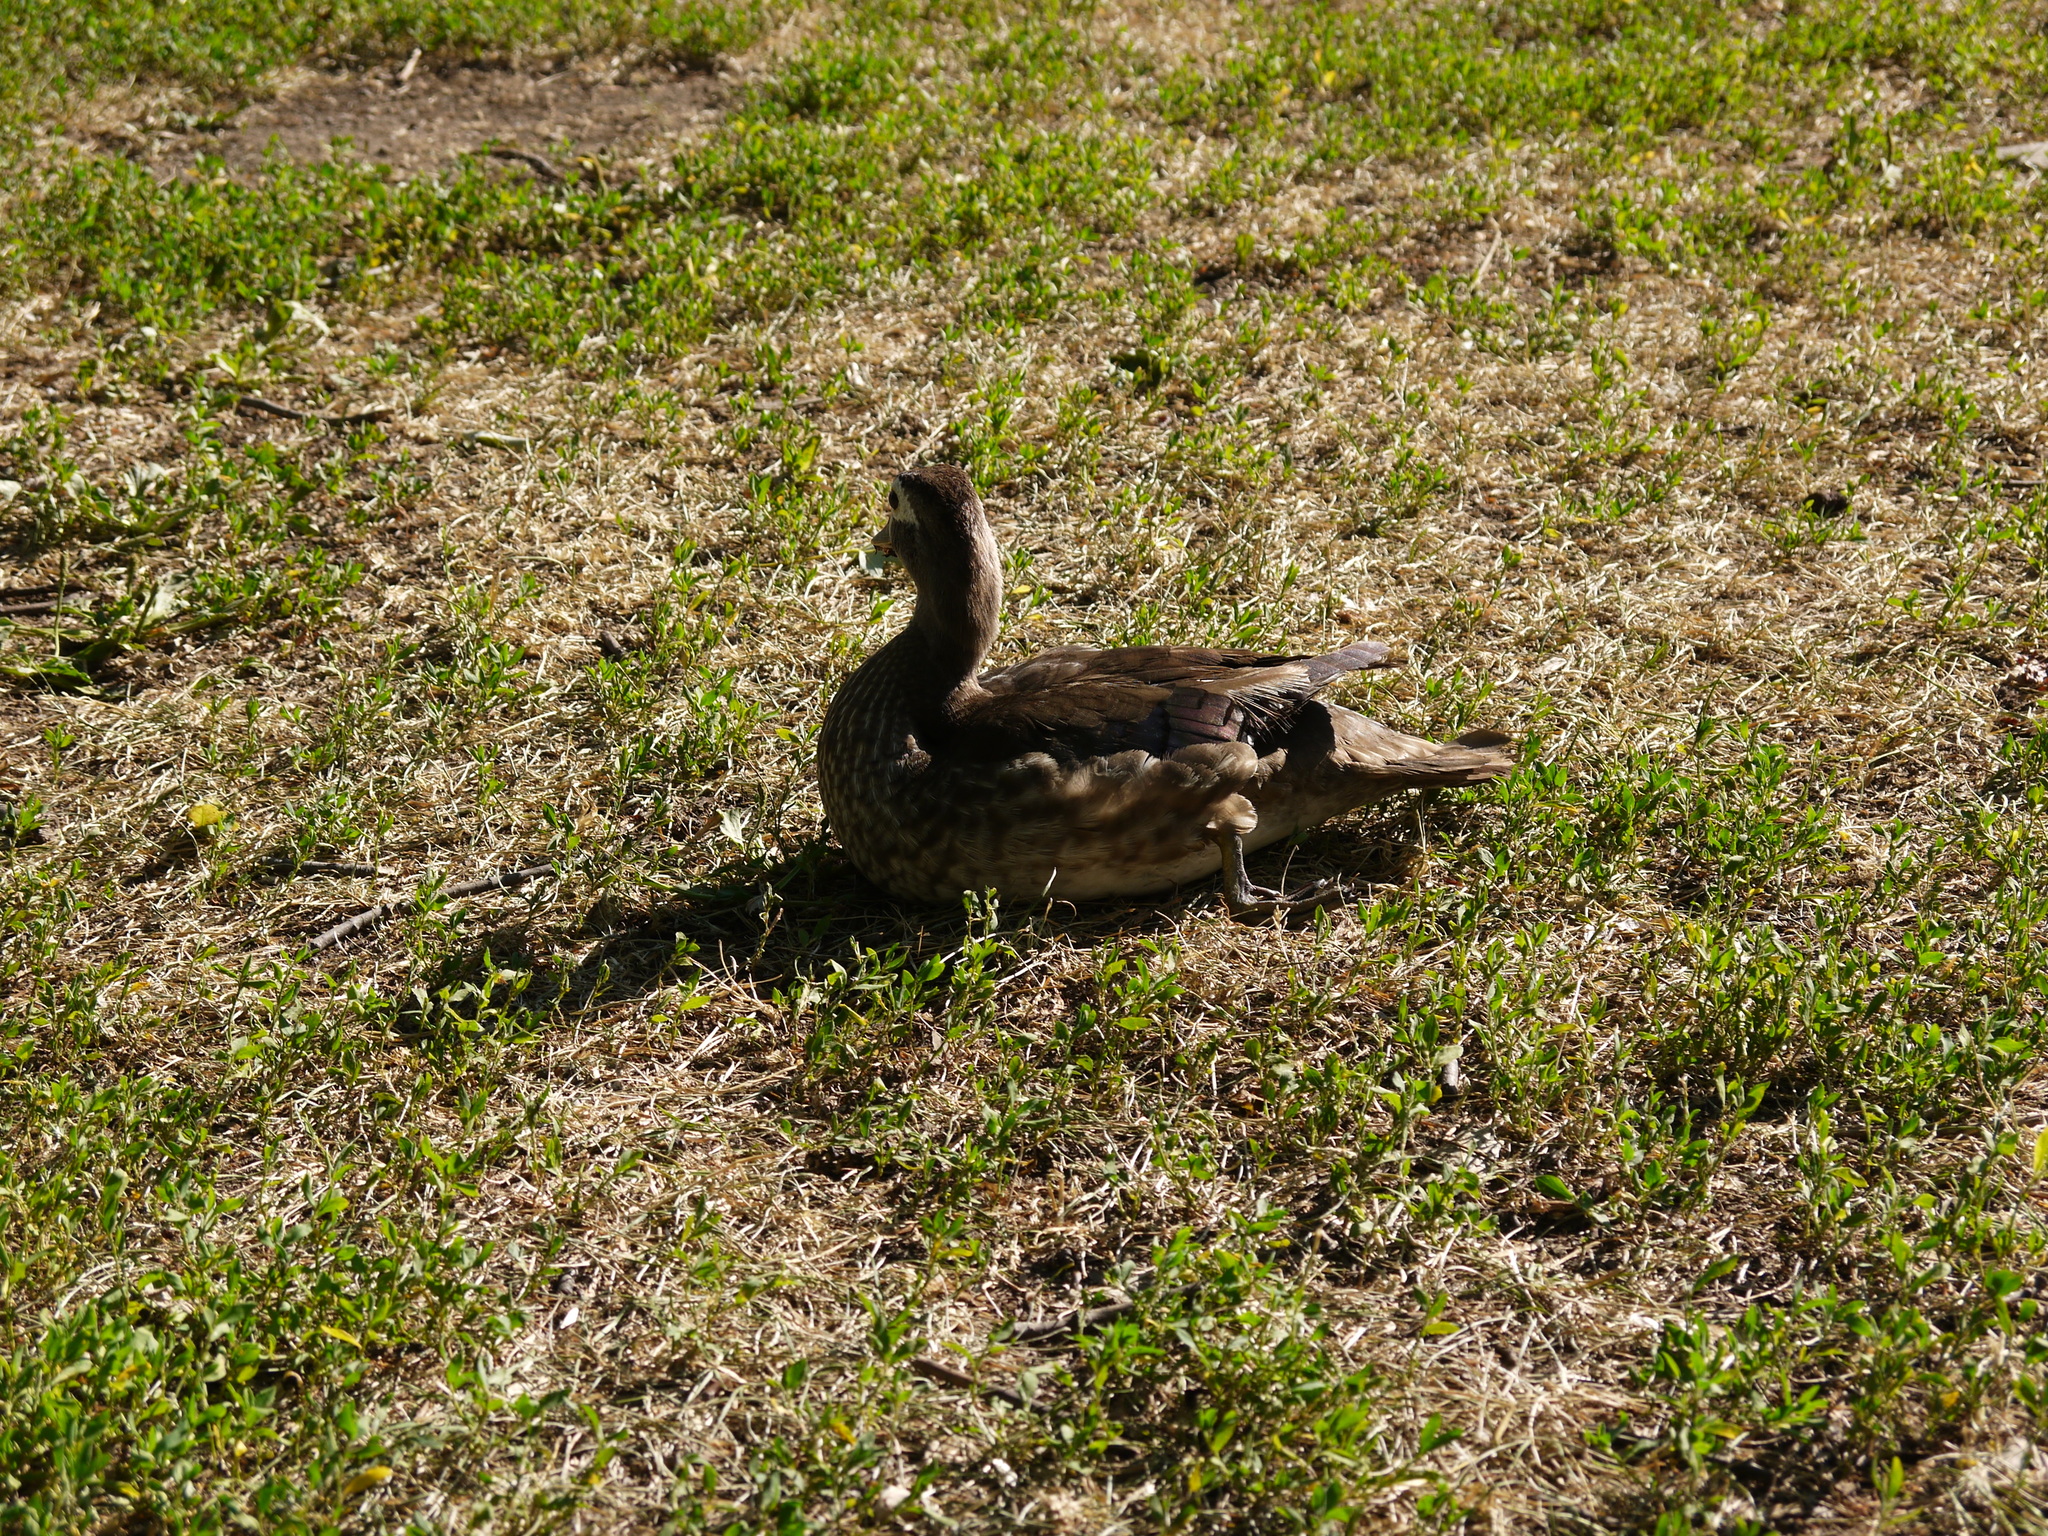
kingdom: Animalia
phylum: Chordata
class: Aves
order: Anseriformes
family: Anatidae
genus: Aix
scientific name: Aix sponsa
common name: Wood duck
